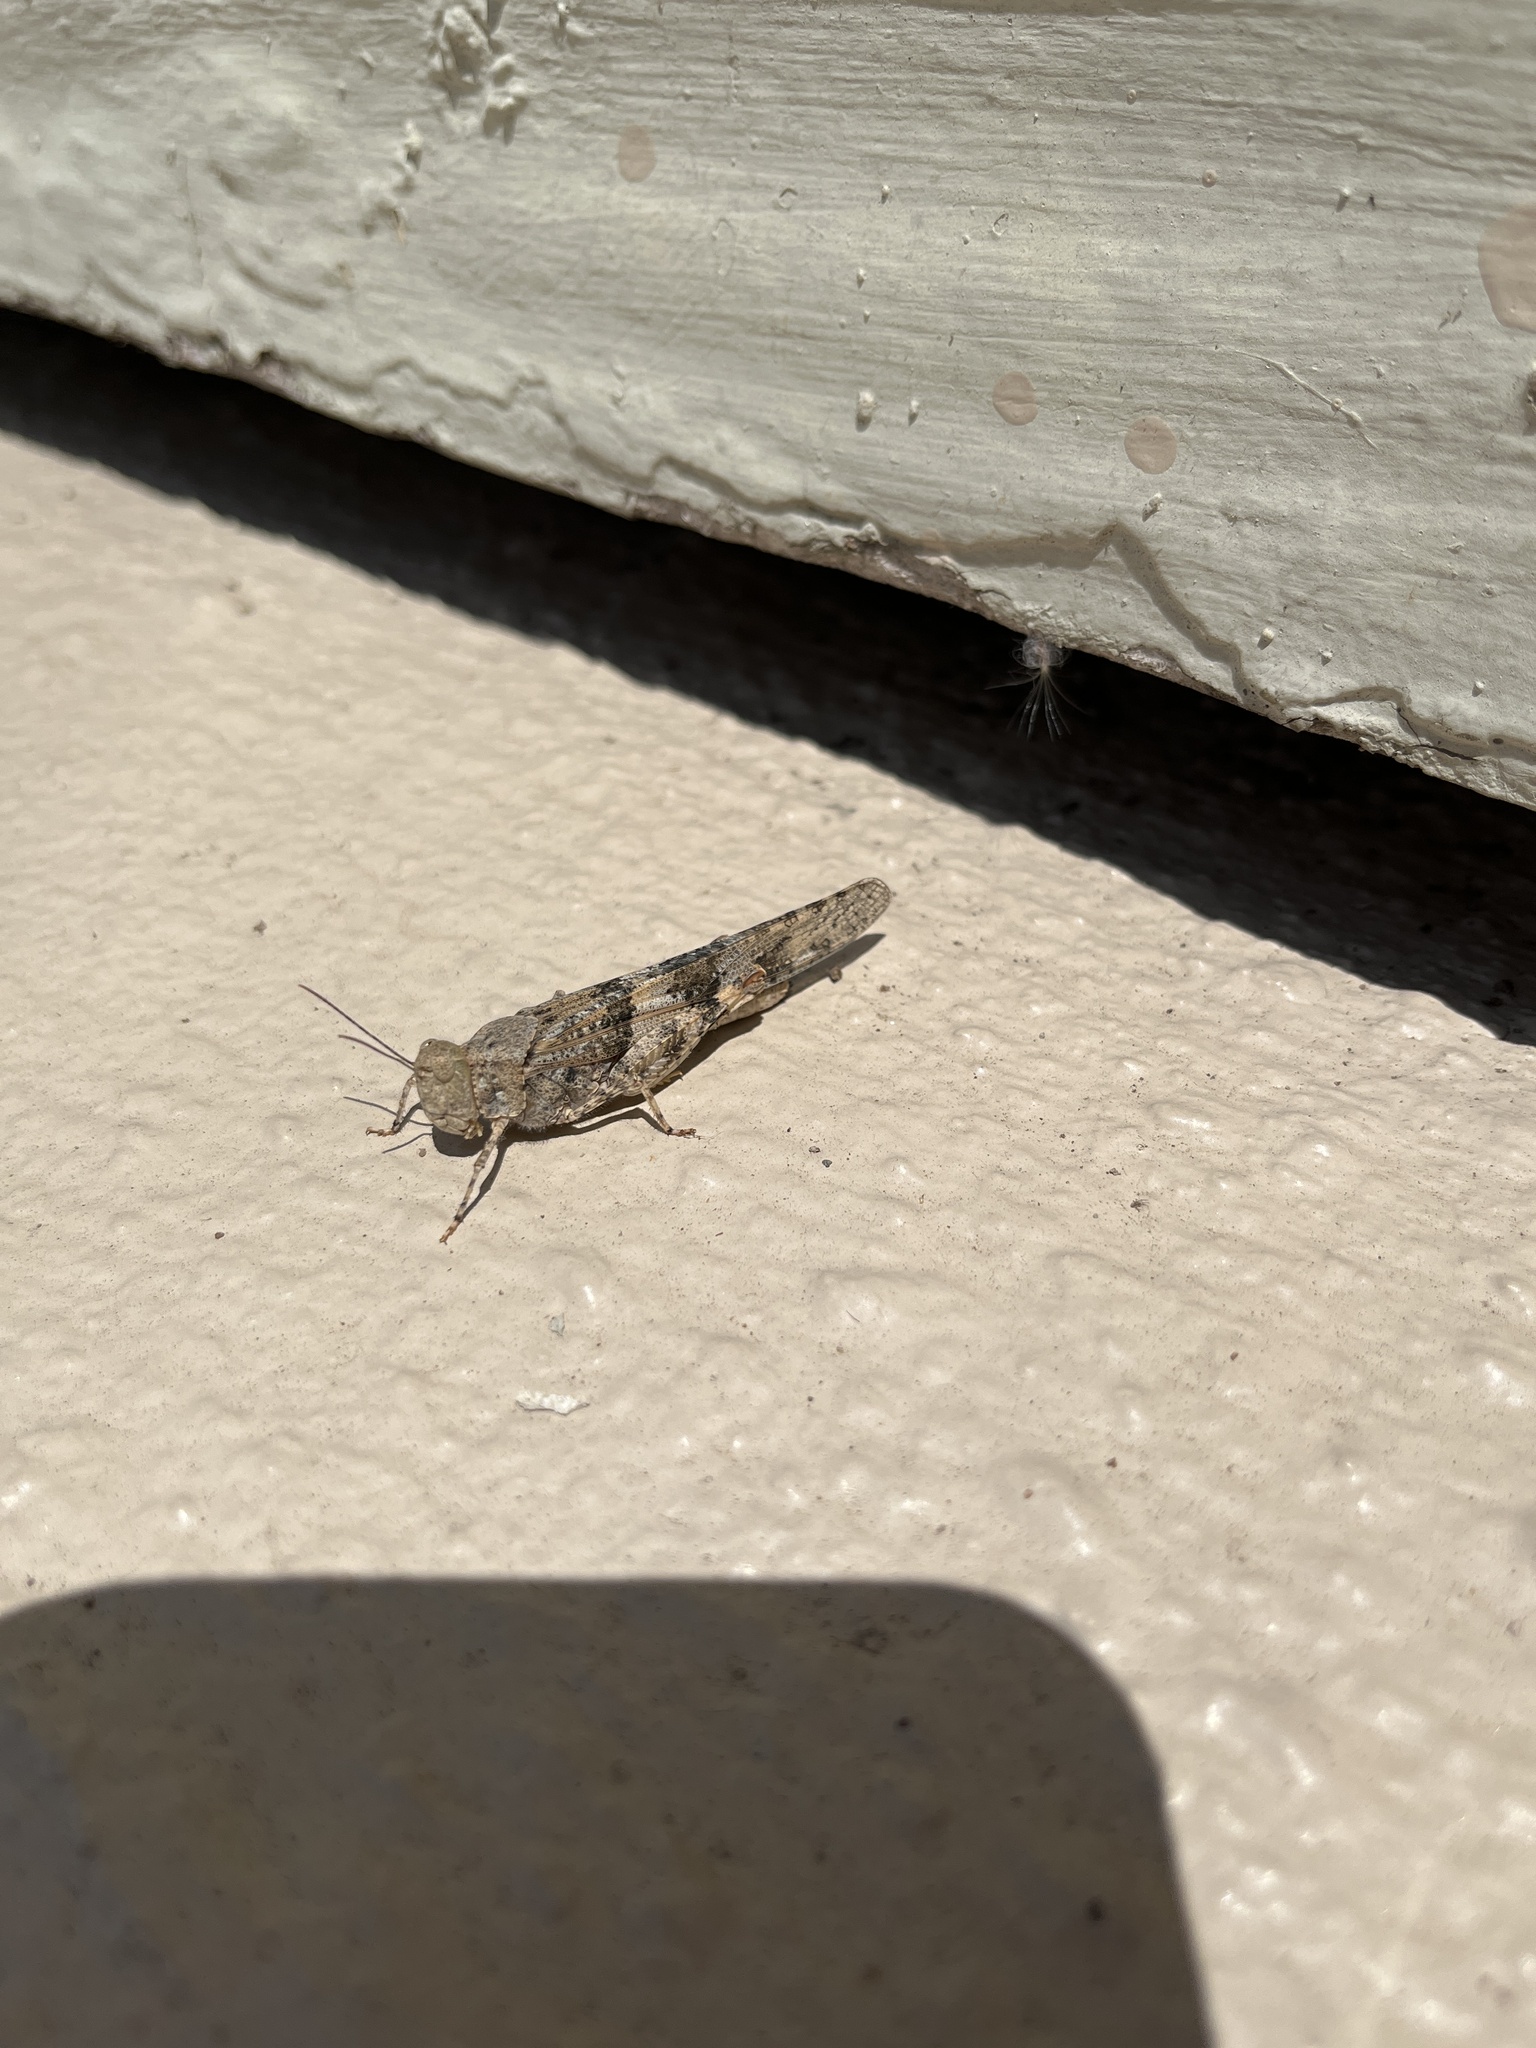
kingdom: Animalia
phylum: Arthropoda
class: Insecta
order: Orthoptera
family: Acrididae
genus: Trimerotropis
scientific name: Trimerotropis pallidipennis
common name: Pallid-winged grasshopper
